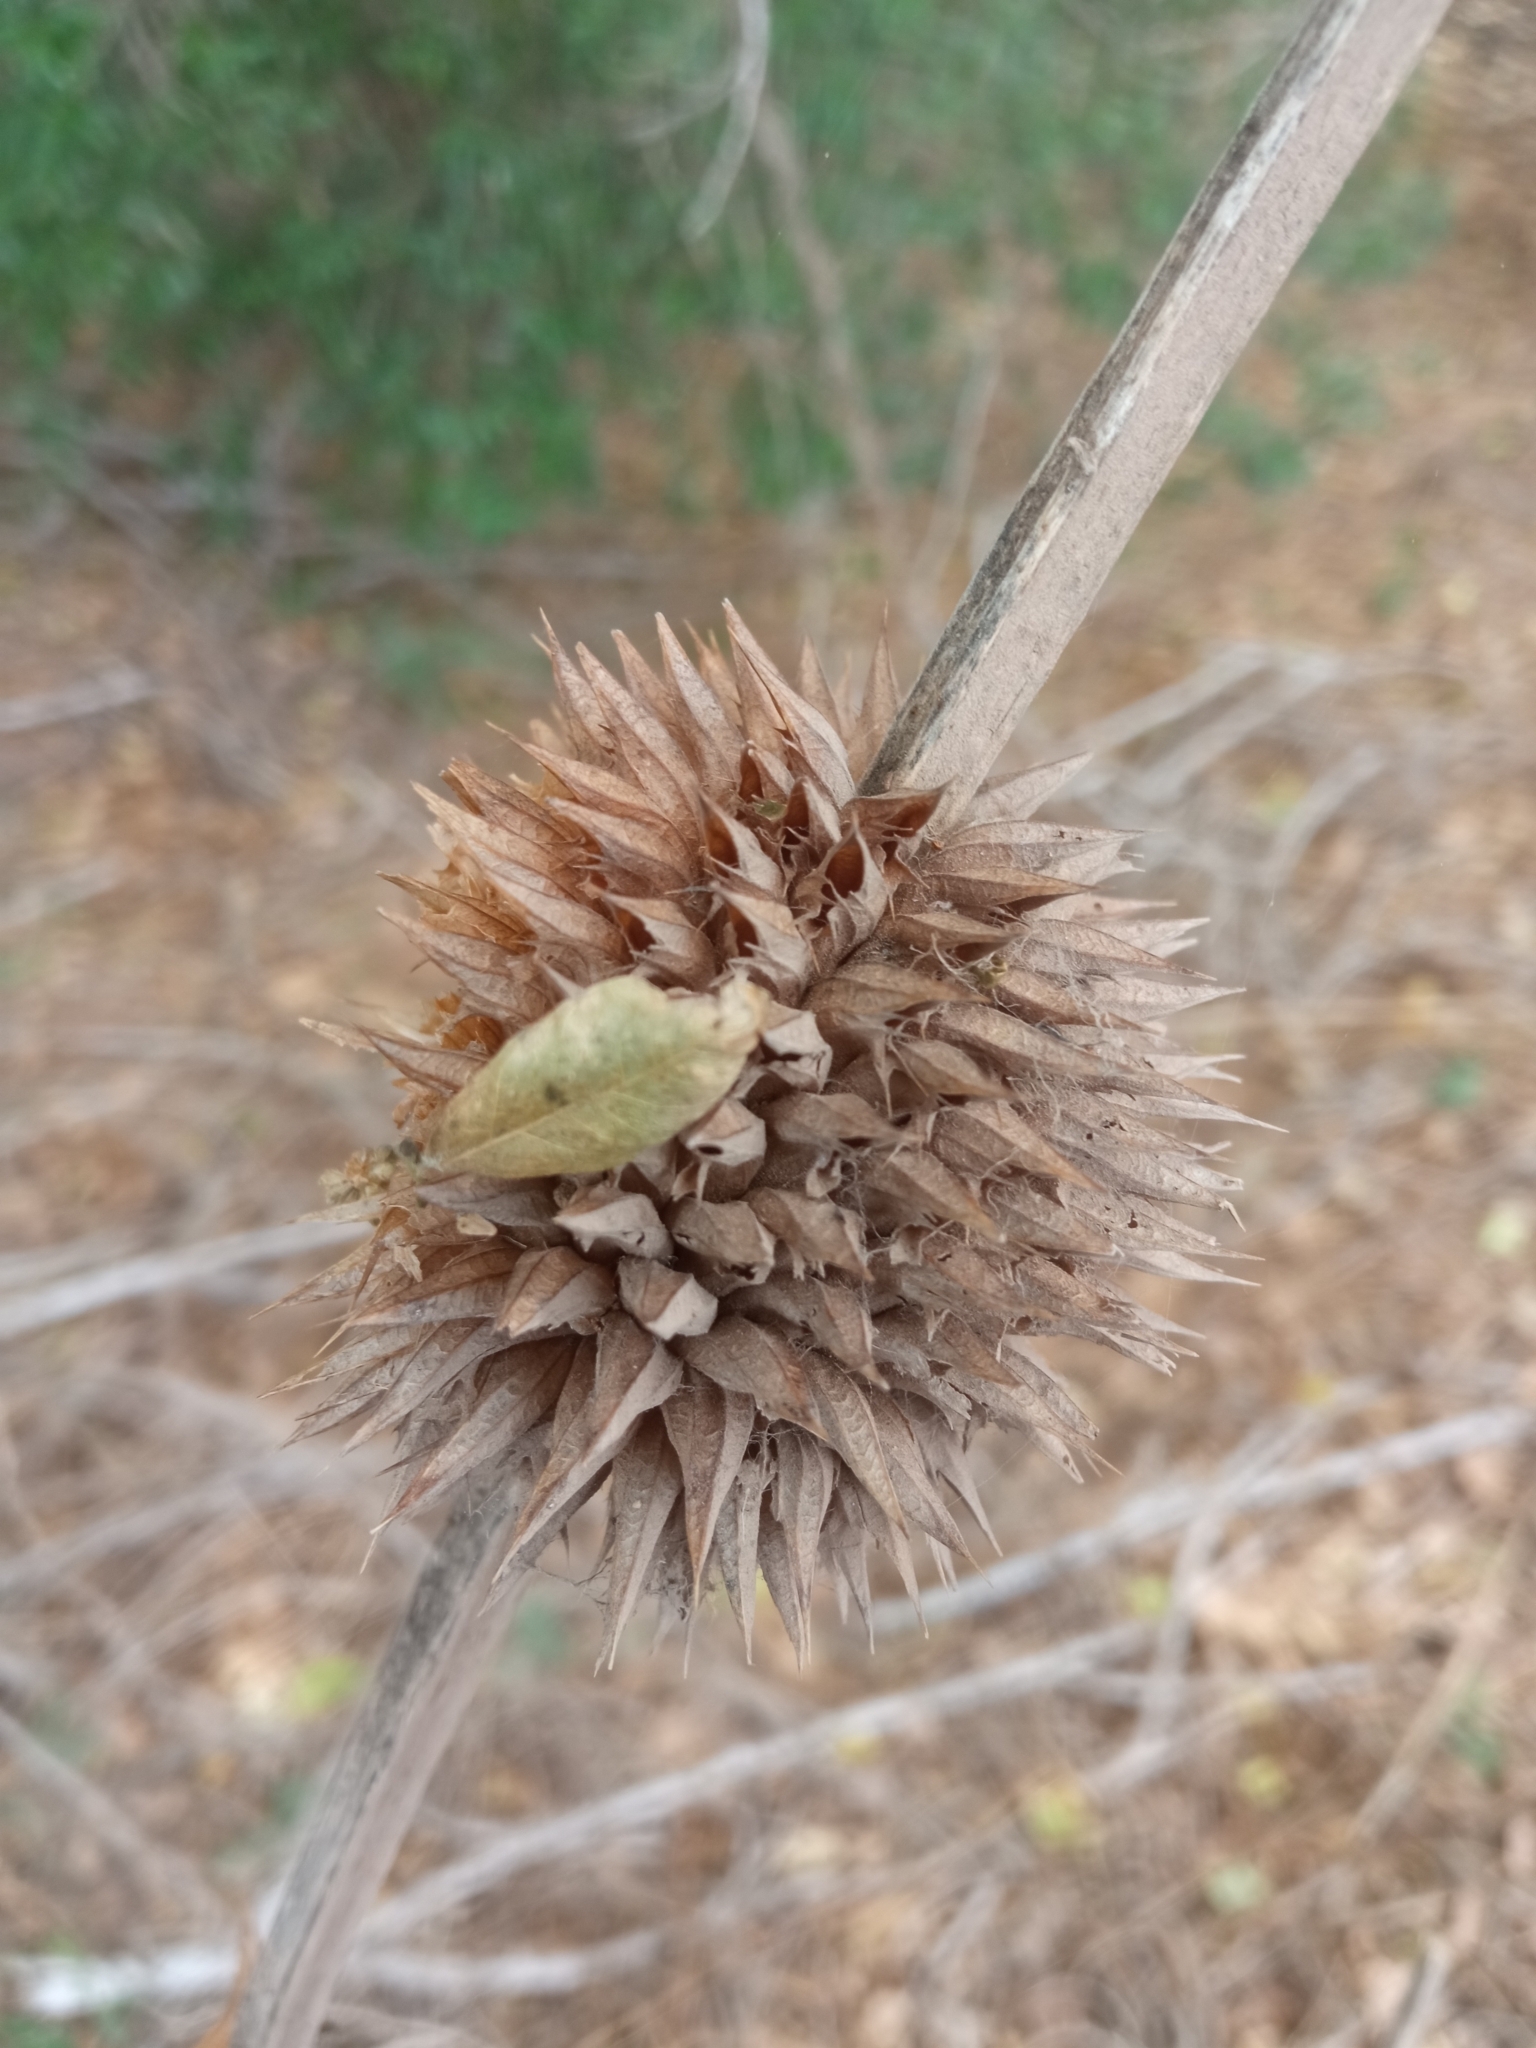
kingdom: Plantae
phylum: Tracheophyta
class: Magnoliopsida
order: Lamiales
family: Lamiaceae
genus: Leonotis
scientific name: Leonotis nepetifolia
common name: Christmas candlestick
